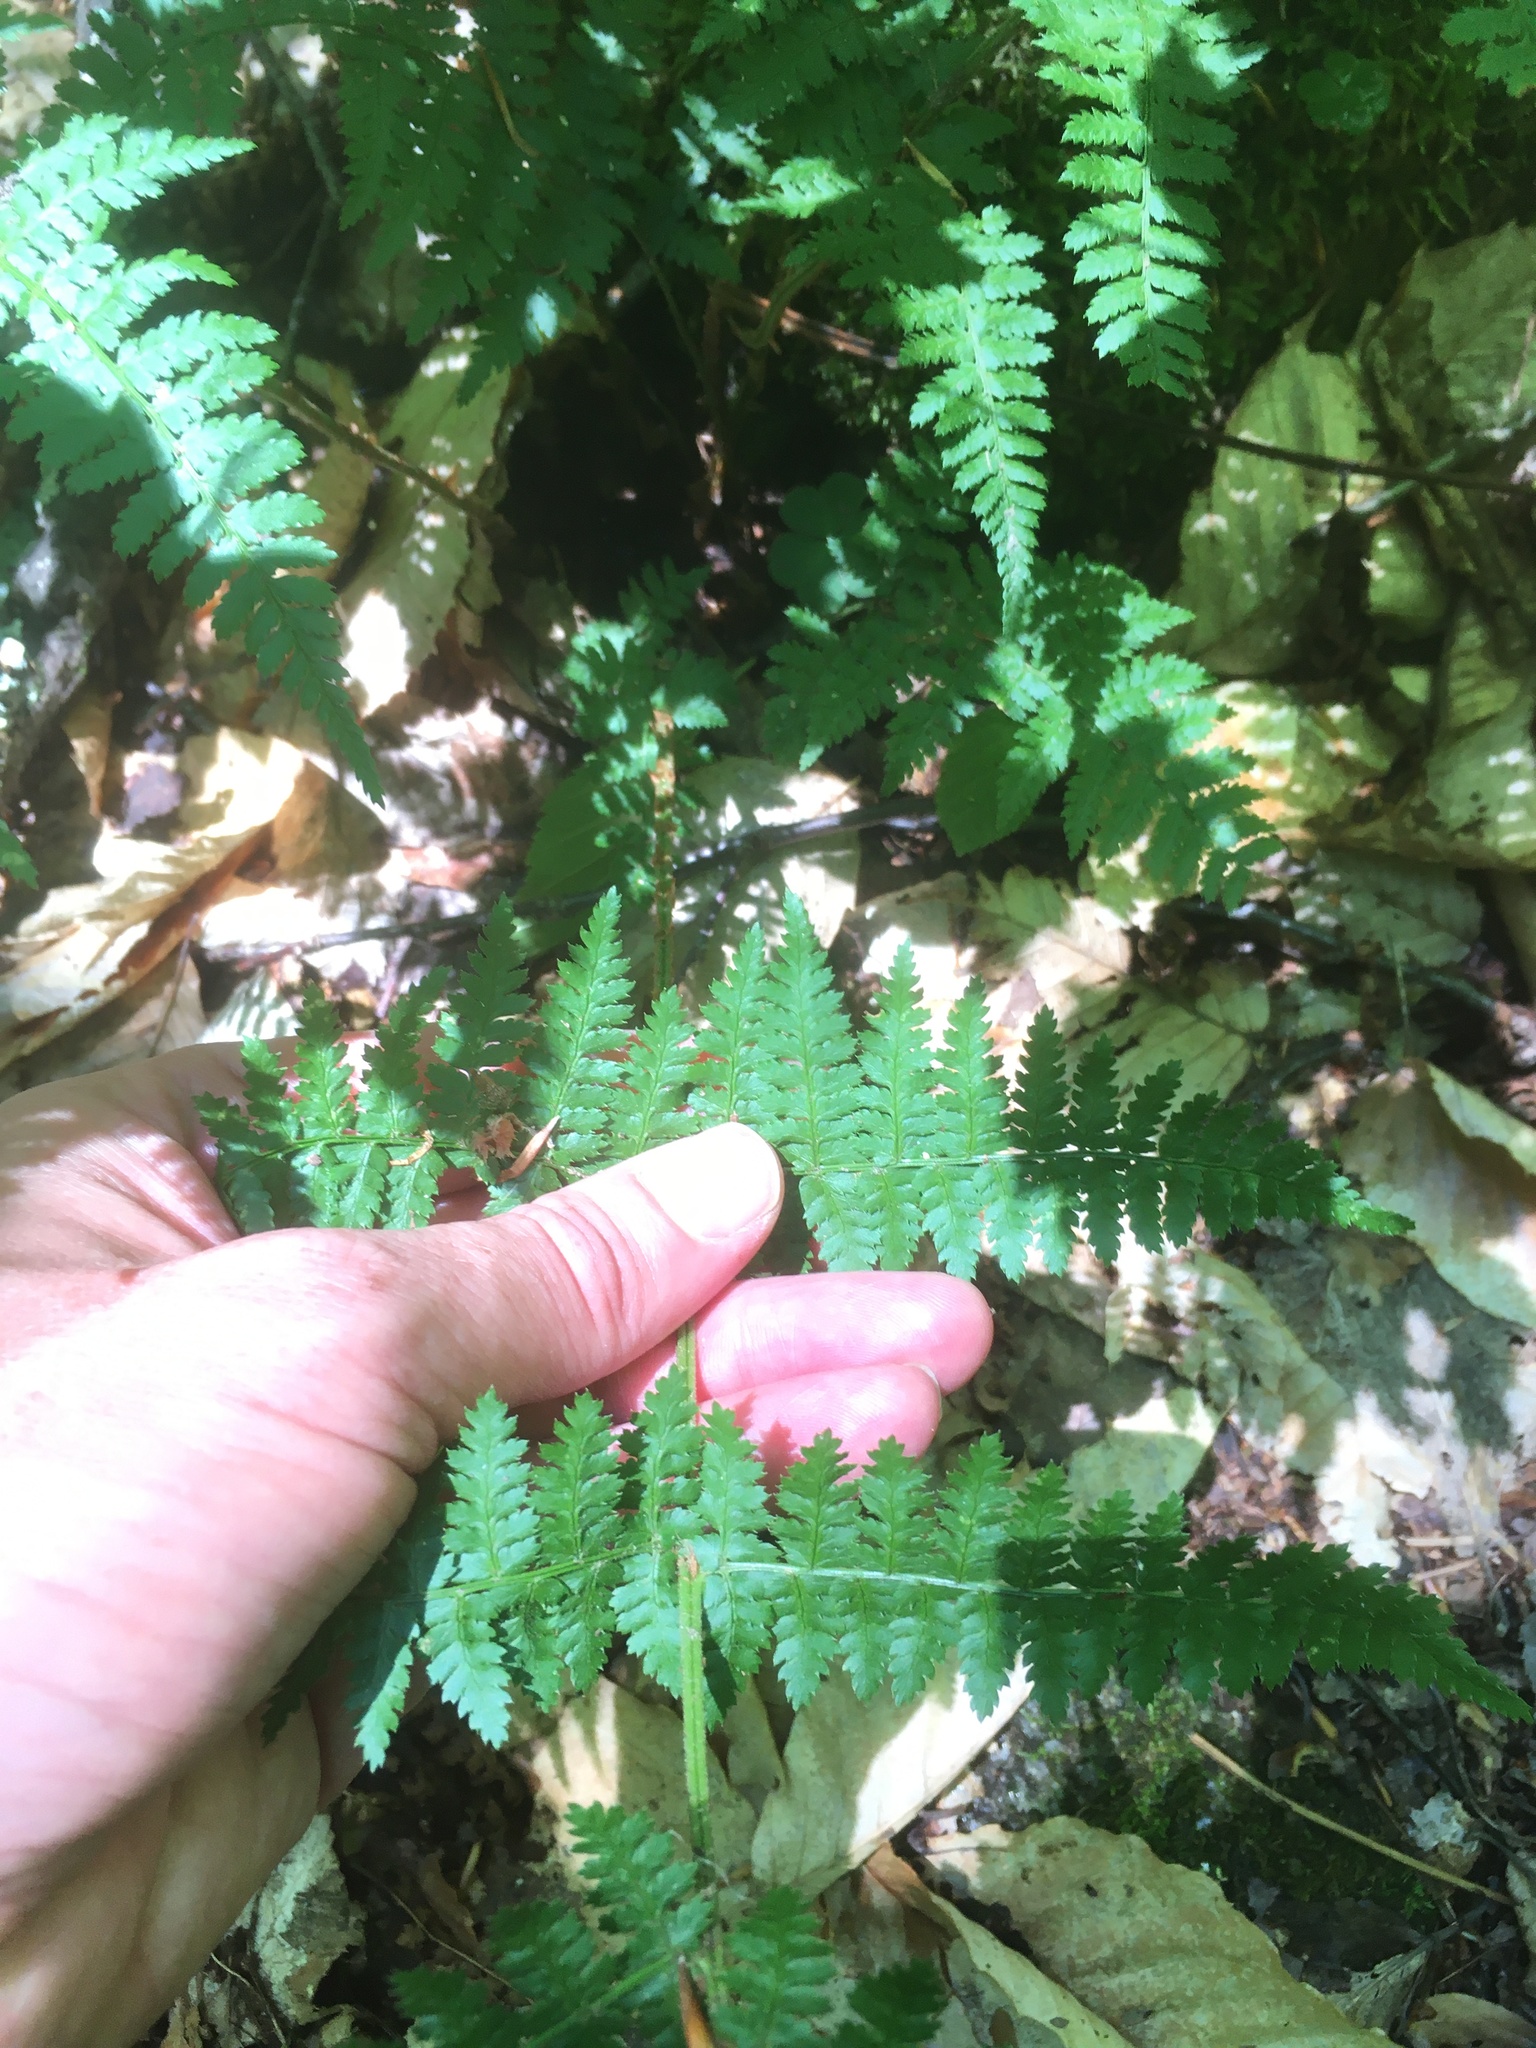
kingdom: Plantae
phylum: Tracheophyta
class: Polypodiopsida
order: Polypodiales
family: Dryopteridaceae
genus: Dryopteris
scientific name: Dryopteris intermedia
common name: Evergreen wood fern
